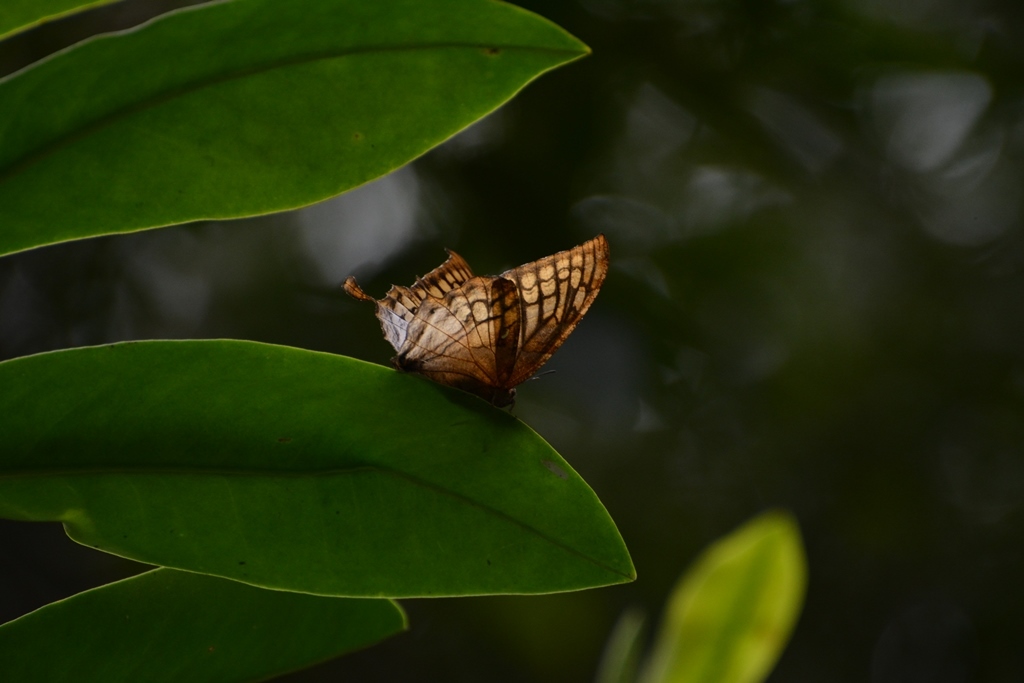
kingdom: Animalia
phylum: Arthropoda
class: Insecta
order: Lepidoptera
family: Nymphalidae
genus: Consul
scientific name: Consul excellens
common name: Black-veined leafwing
